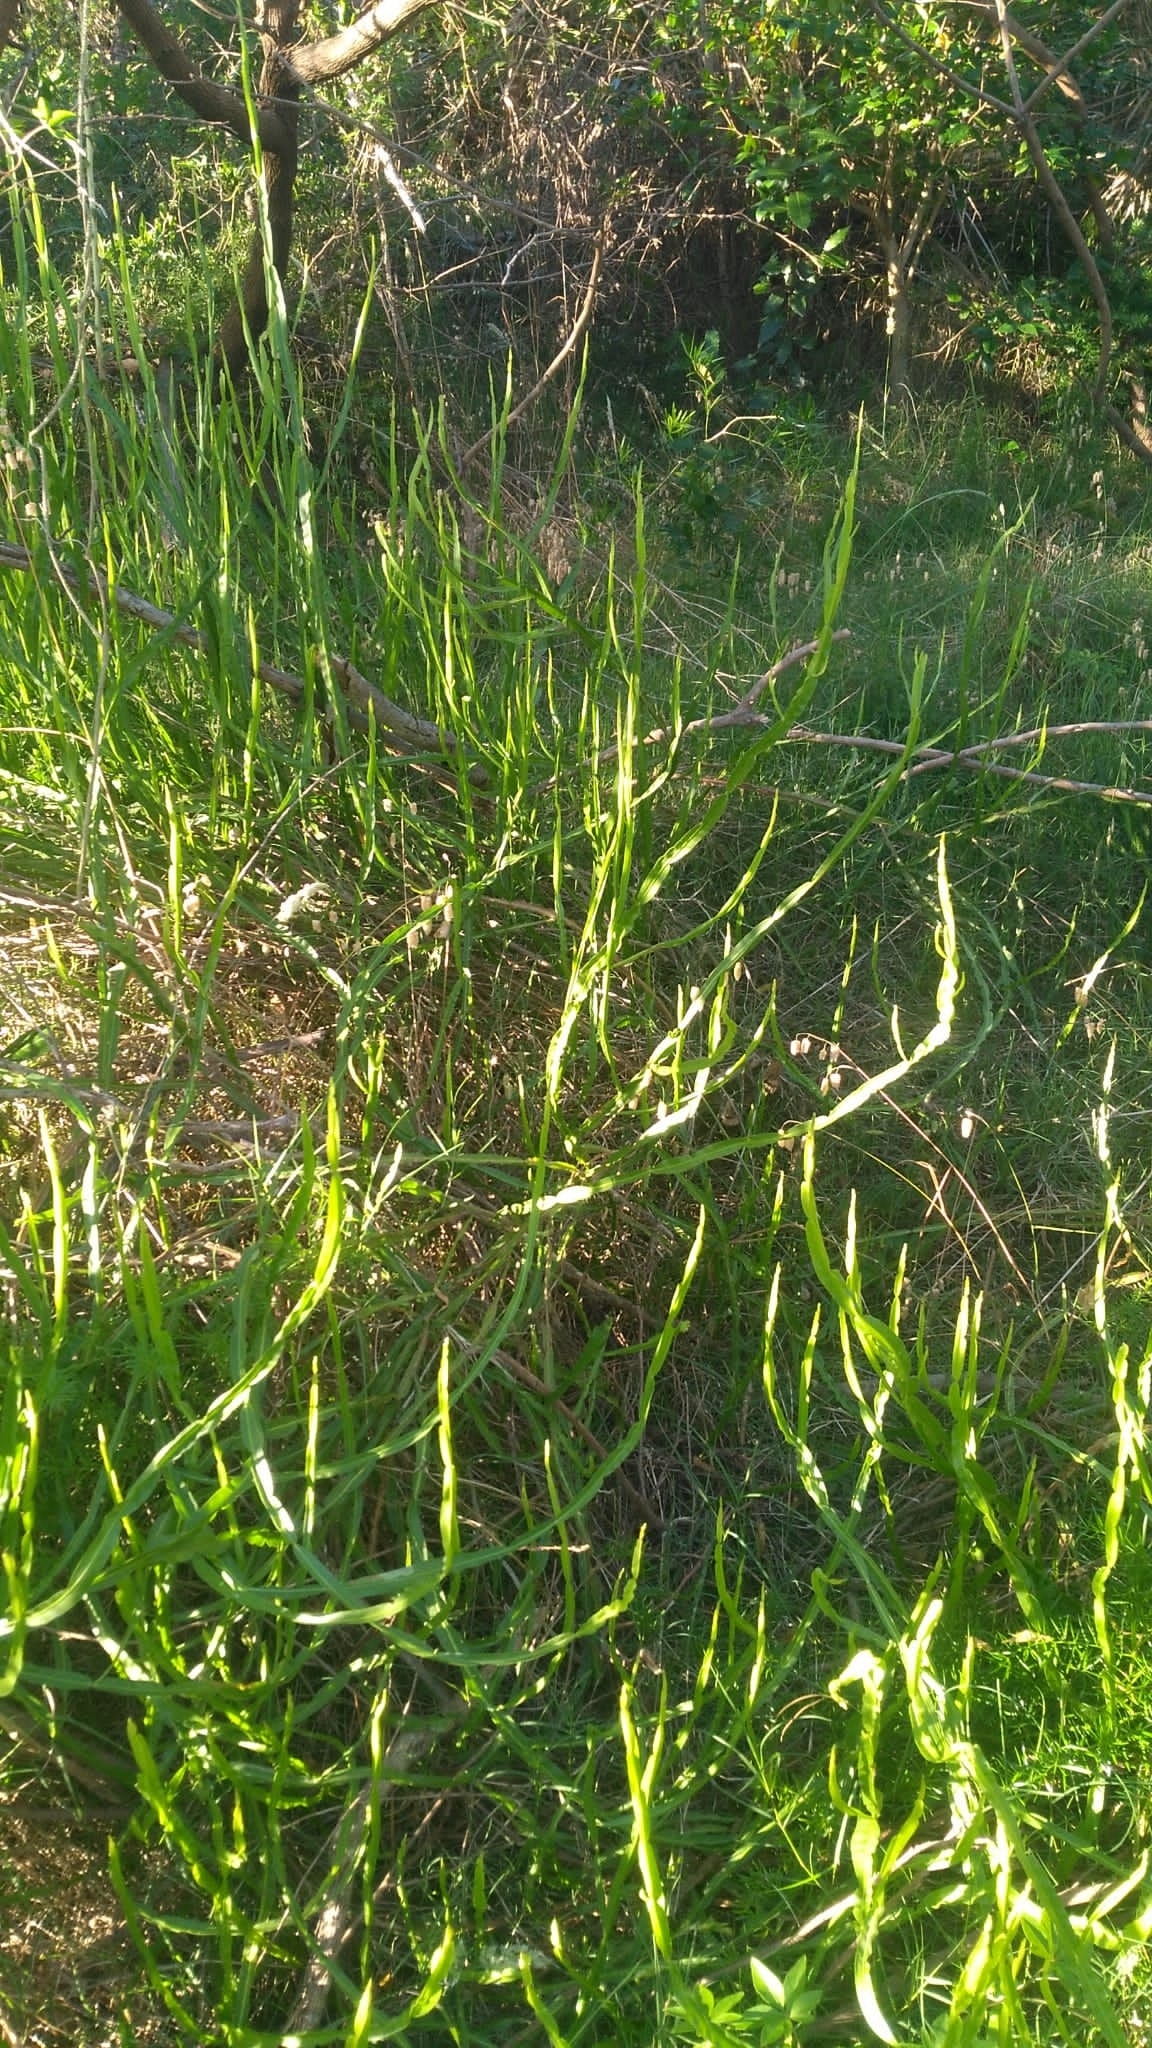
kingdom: Plantae
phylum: Tracheophyta
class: Magnoliopsida
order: Asterales
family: Asteraceae
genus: Baccharis
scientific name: Baccharis trimera
